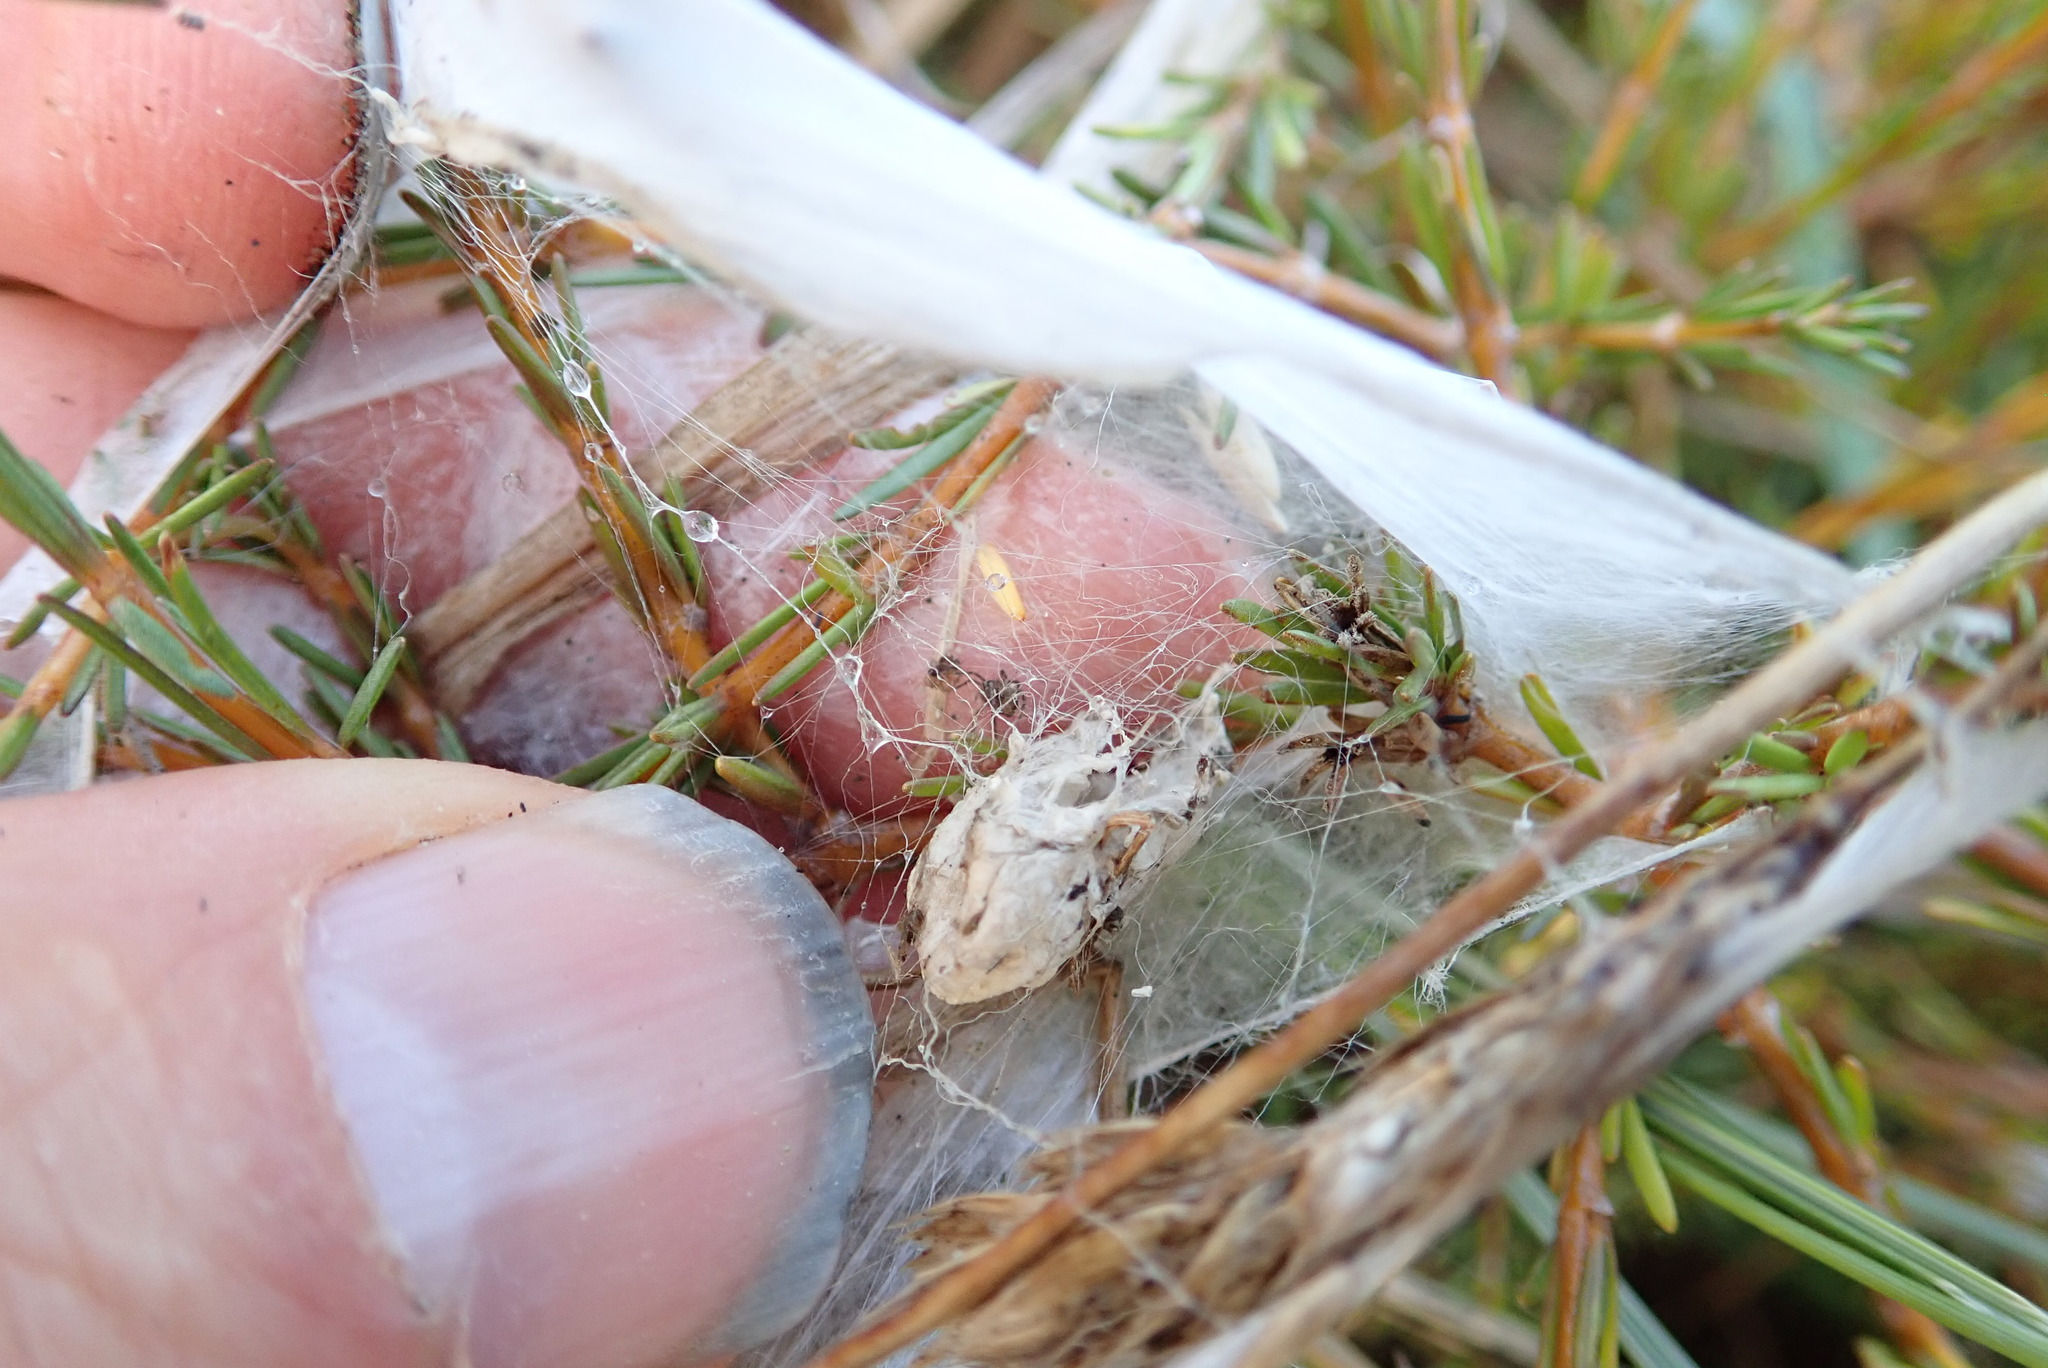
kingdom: Animalia
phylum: Arthropoda
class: Arachnida
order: Araneae
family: Pisauridae
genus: Dolomedes
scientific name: Dolomedes minor
